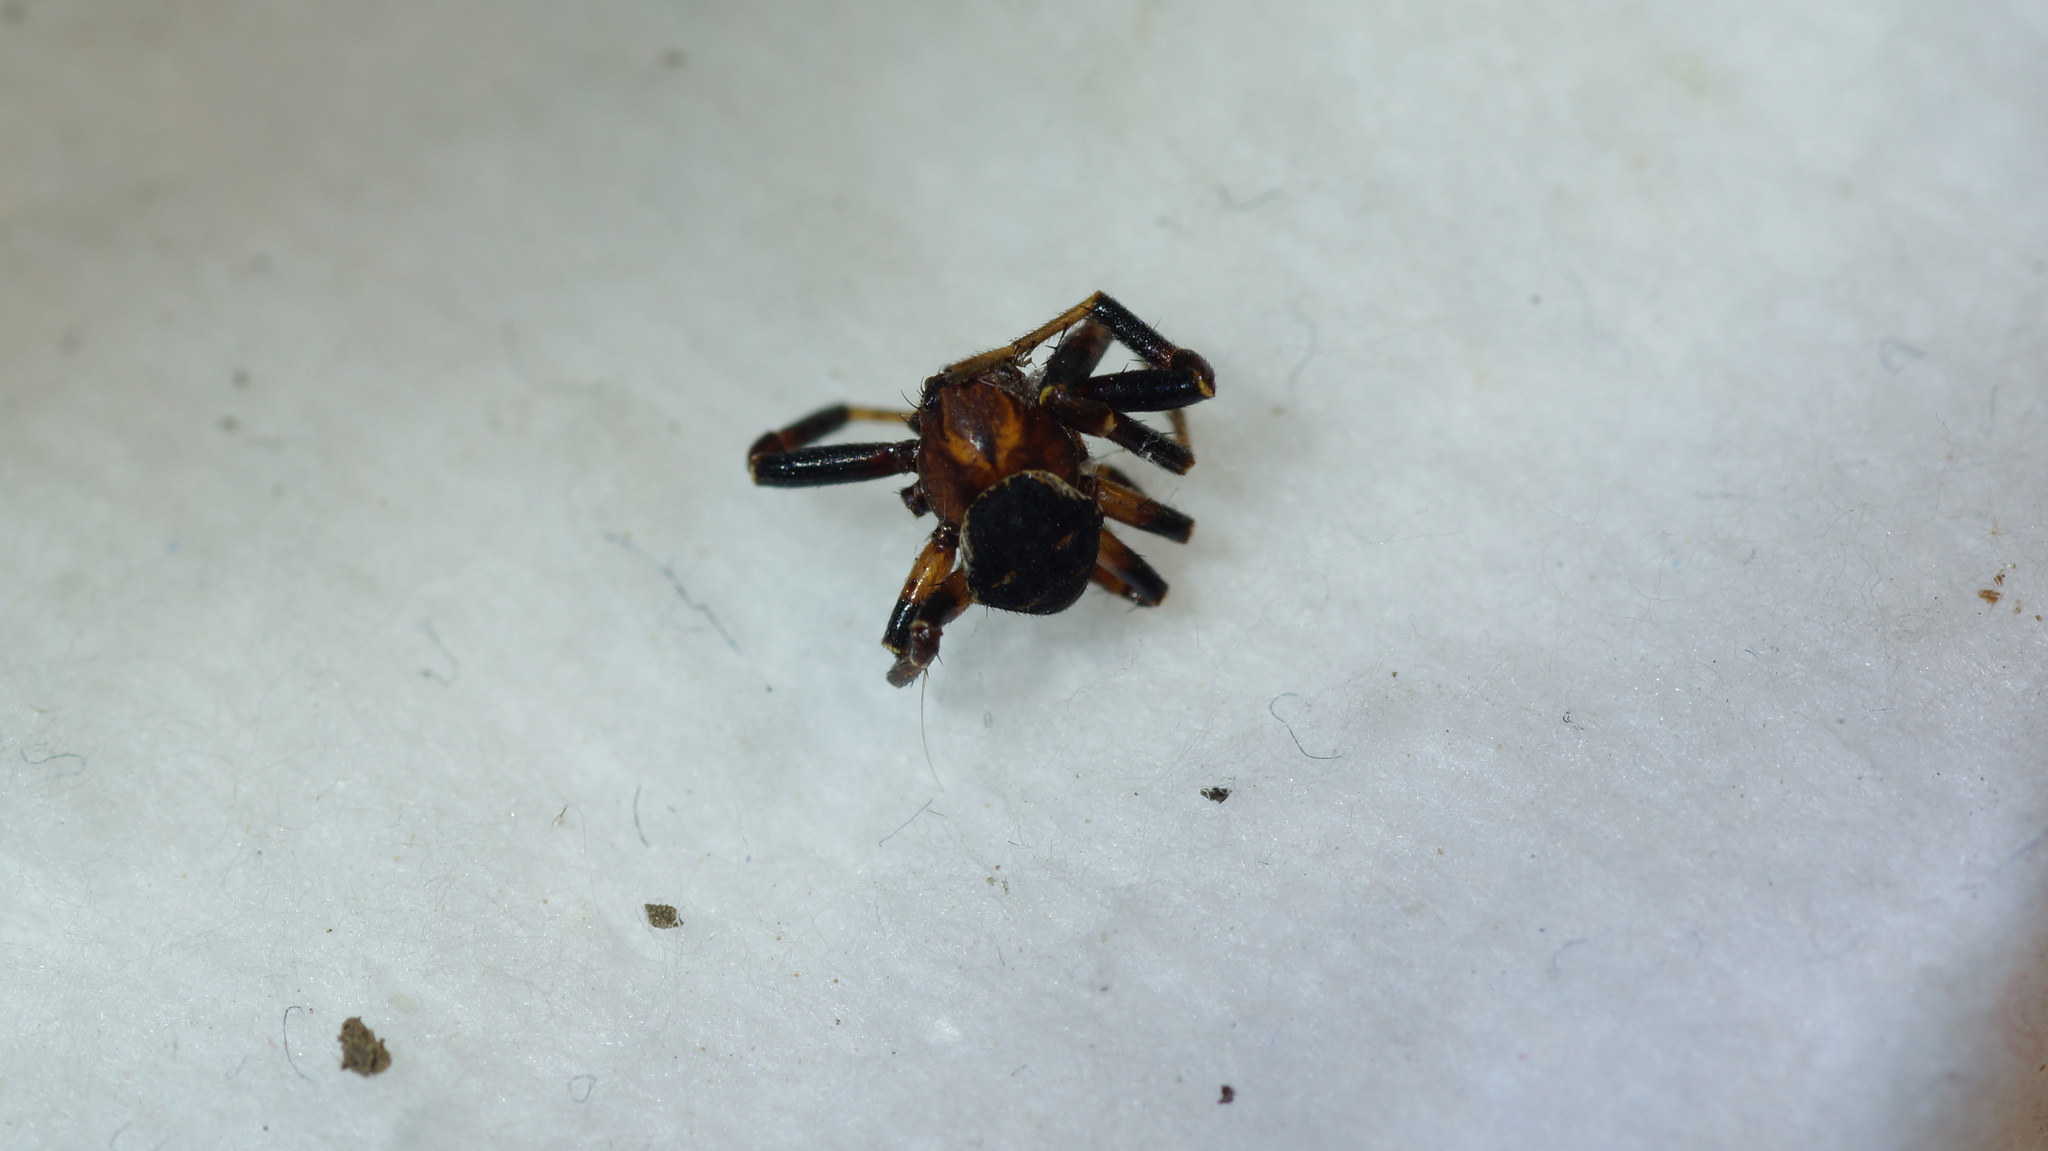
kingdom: Animalia
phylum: Arthropoda
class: Arachnida
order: Araneae
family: Thomisidae
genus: Xysticus
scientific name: Xysticus lineatus
